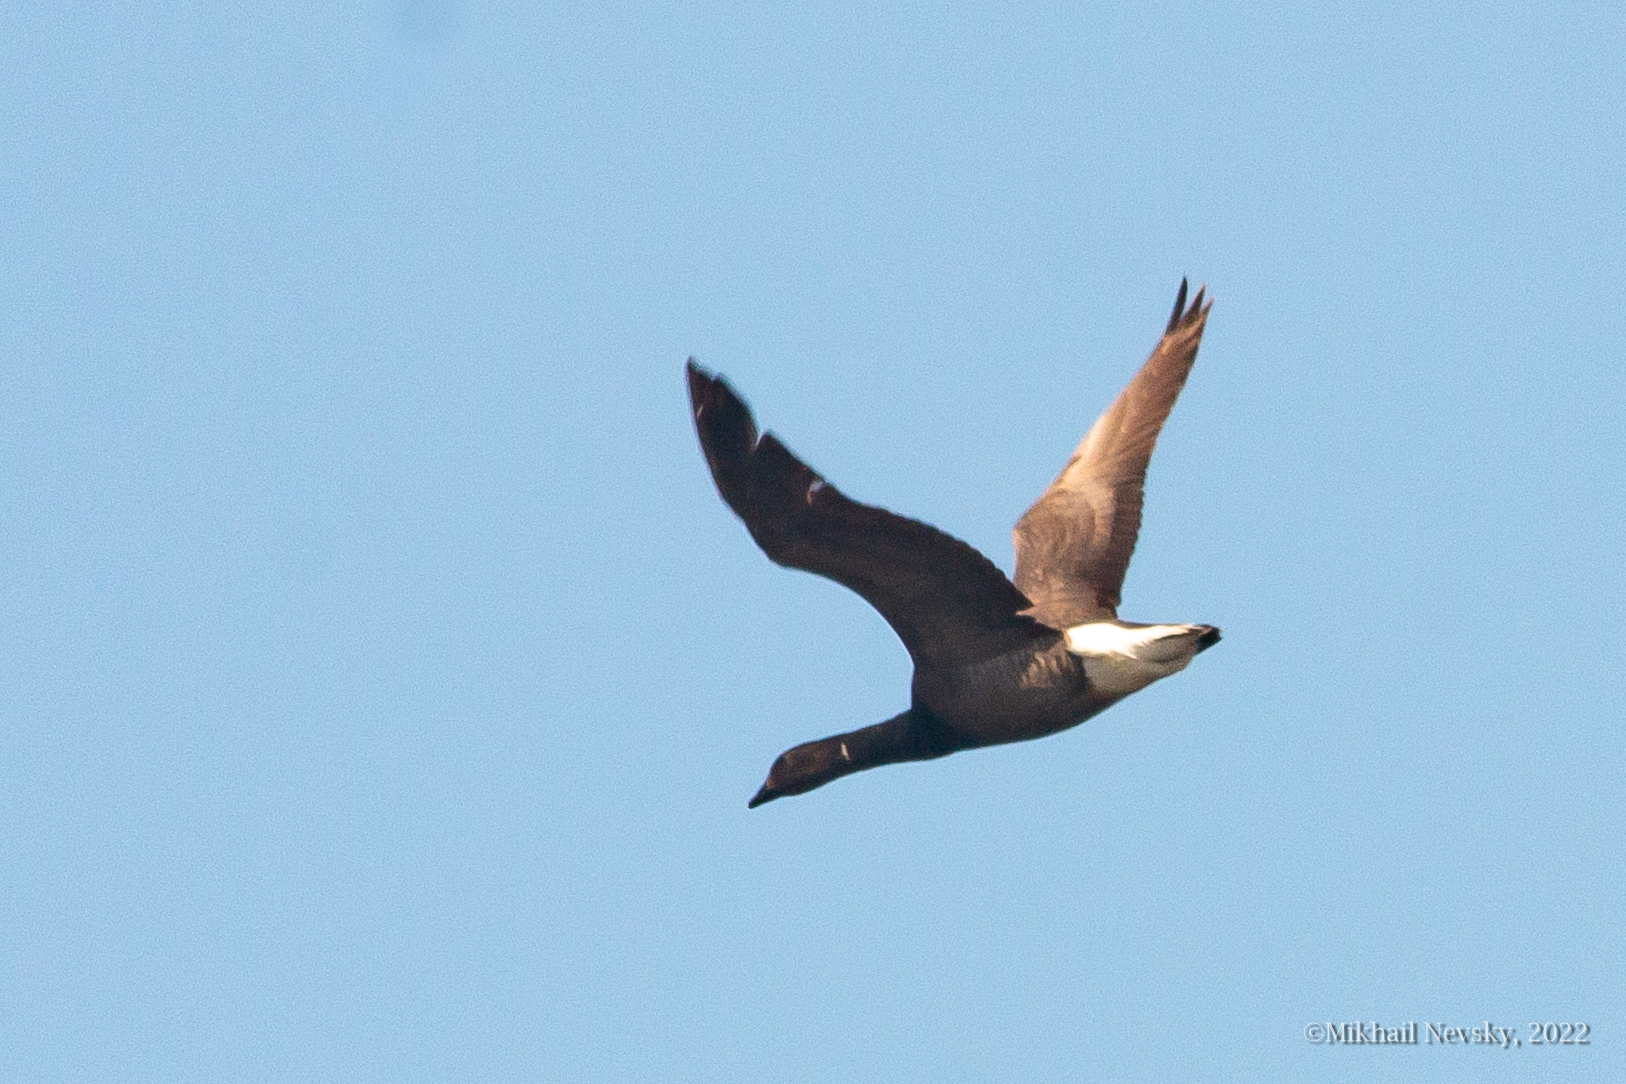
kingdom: Animalia
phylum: Chordata
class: Aves
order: Anseriformes
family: Anatidae
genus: Branta
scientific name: Branta bernicla
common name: Brant goose
